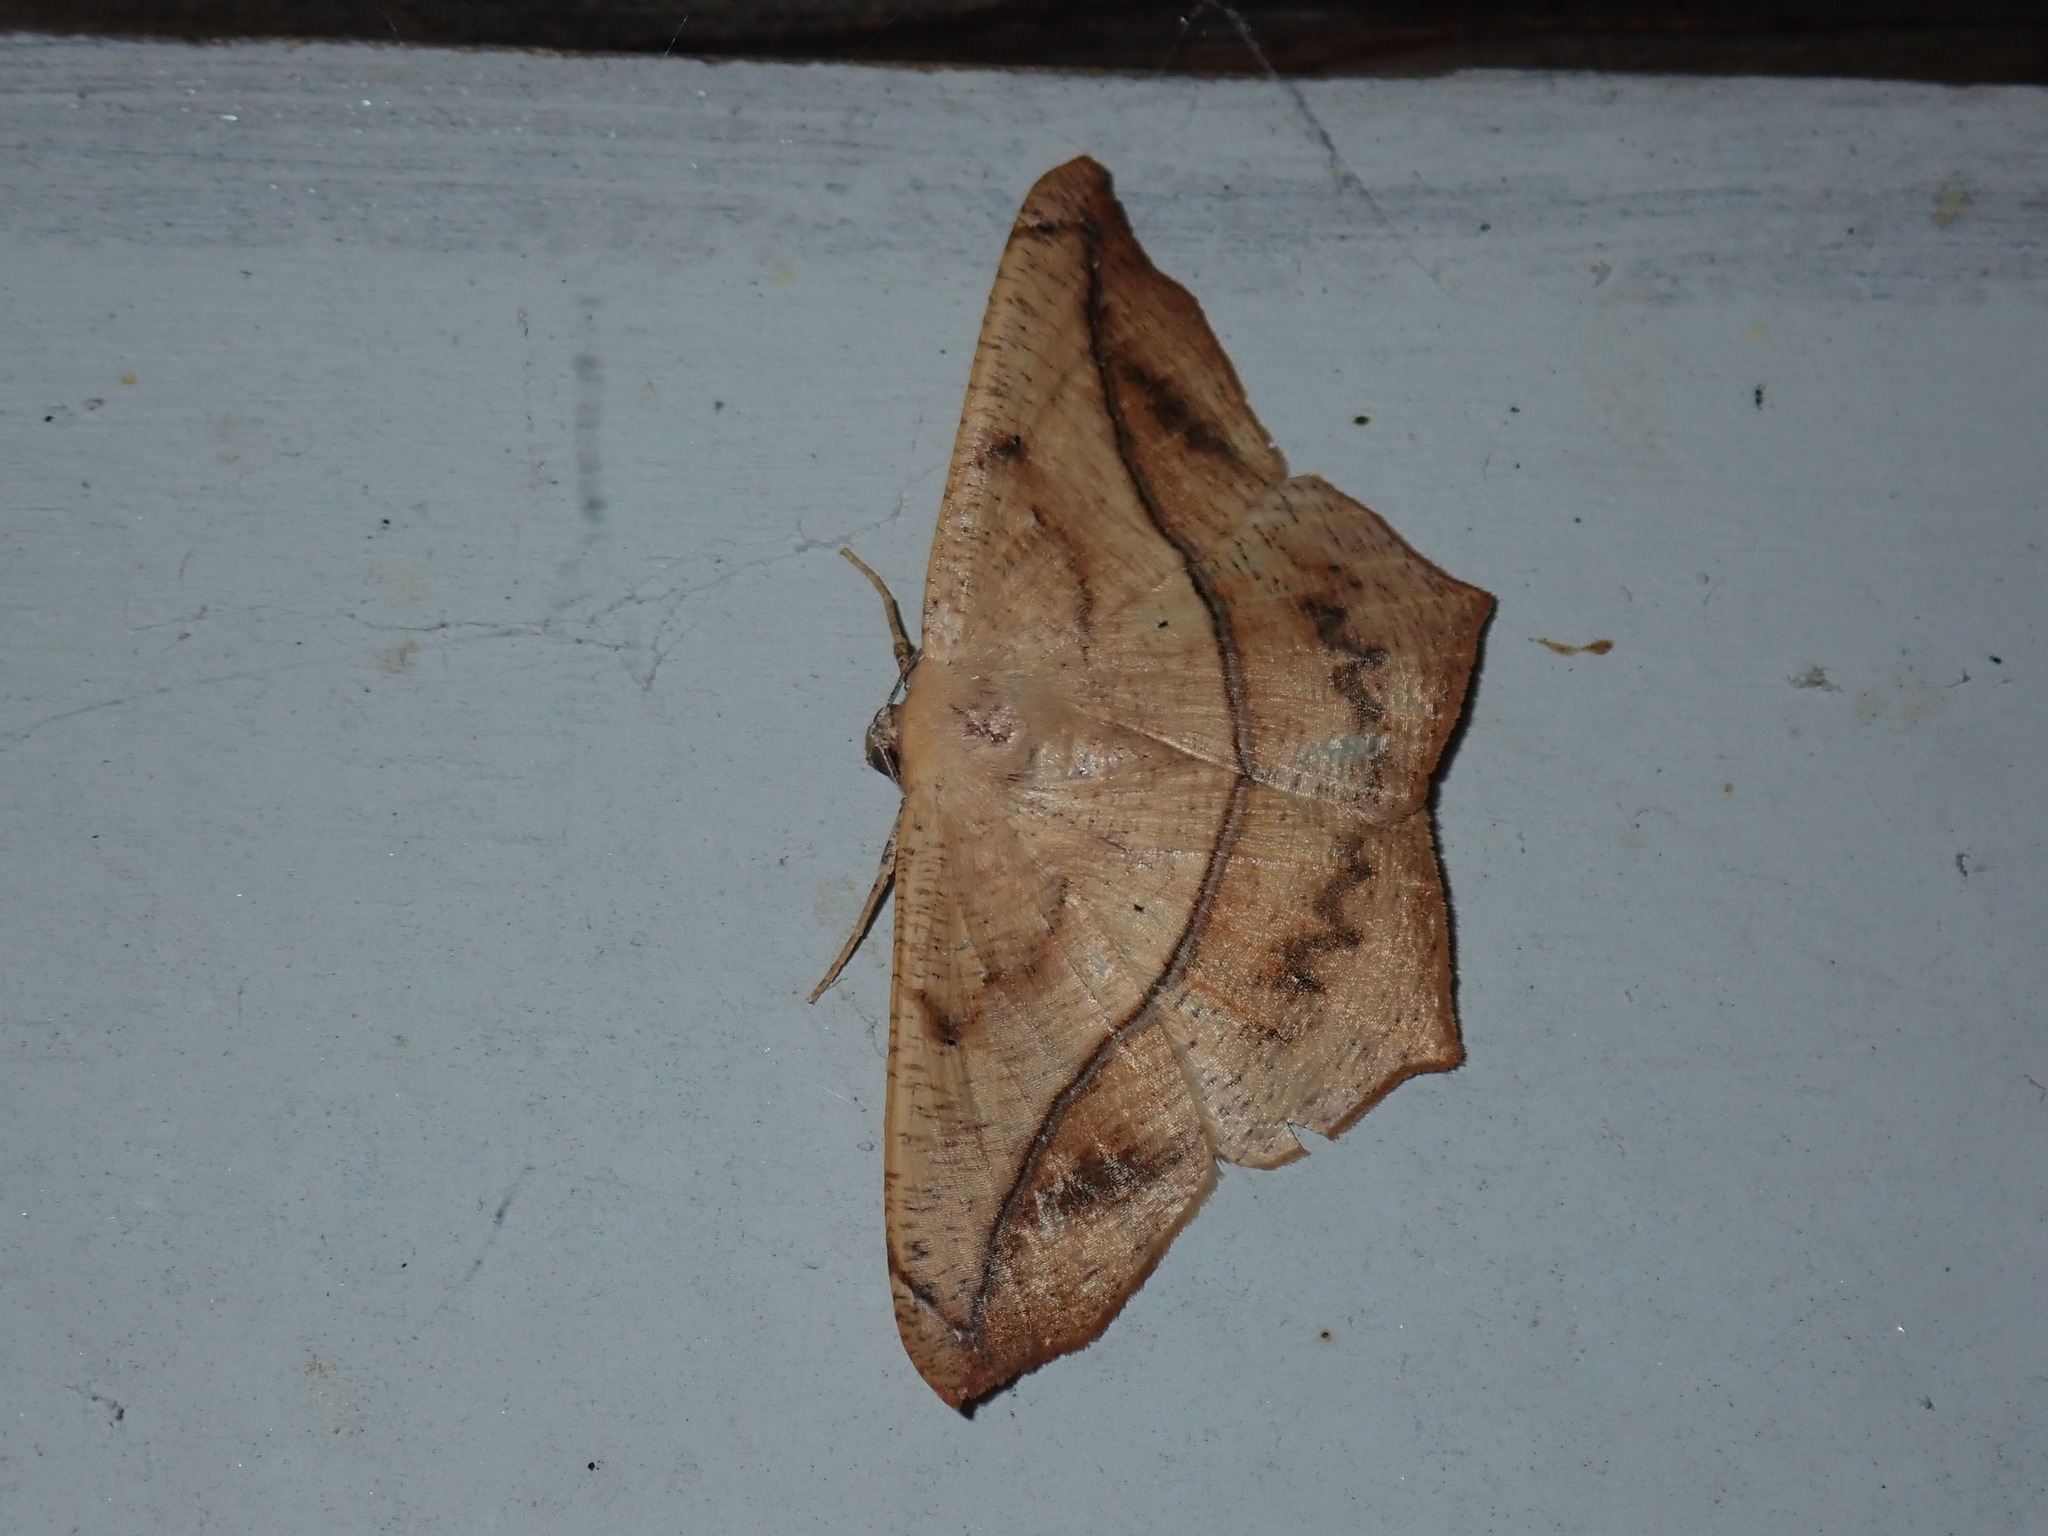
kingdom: Animalia
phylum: Arthropoda
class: Insecta
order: Lepidoptera
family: Geometridae
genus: Prochoerodes
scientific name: Prochoerodes lineola
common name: Large maple spanworm
